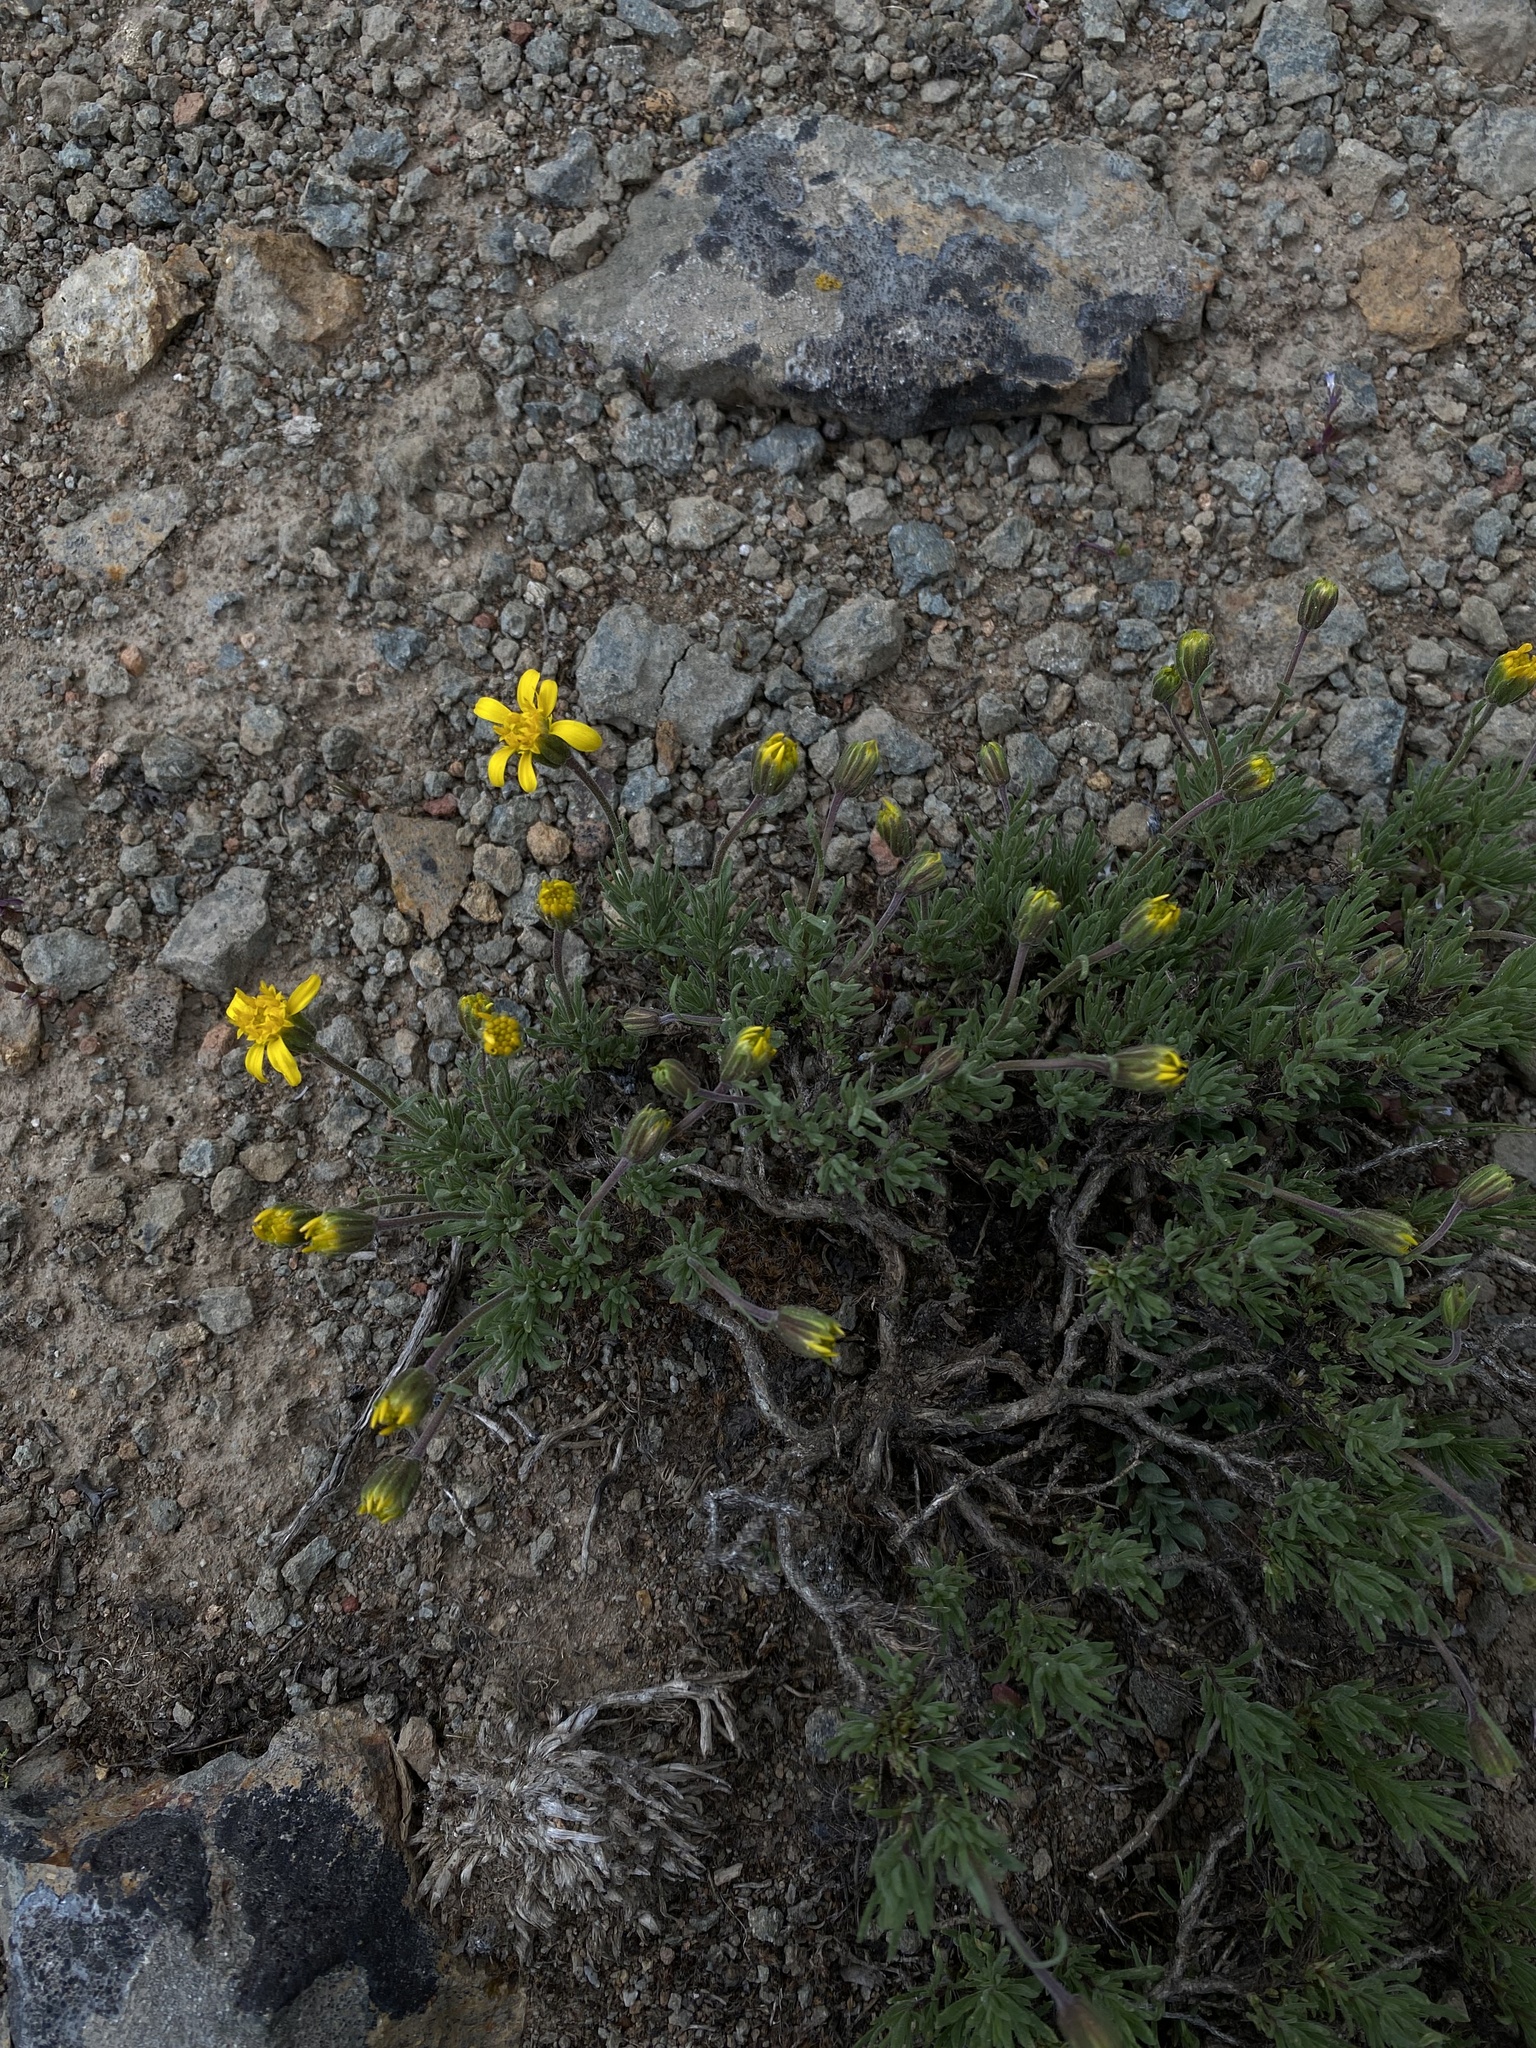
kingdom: Plantae
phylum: Tracheophyta
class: Magnoliopsida
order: Asterales
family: Asteraceae
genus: Nestotus
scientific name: Nestotus stenophyllus
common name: Narrow-leaf mock goldenweed
